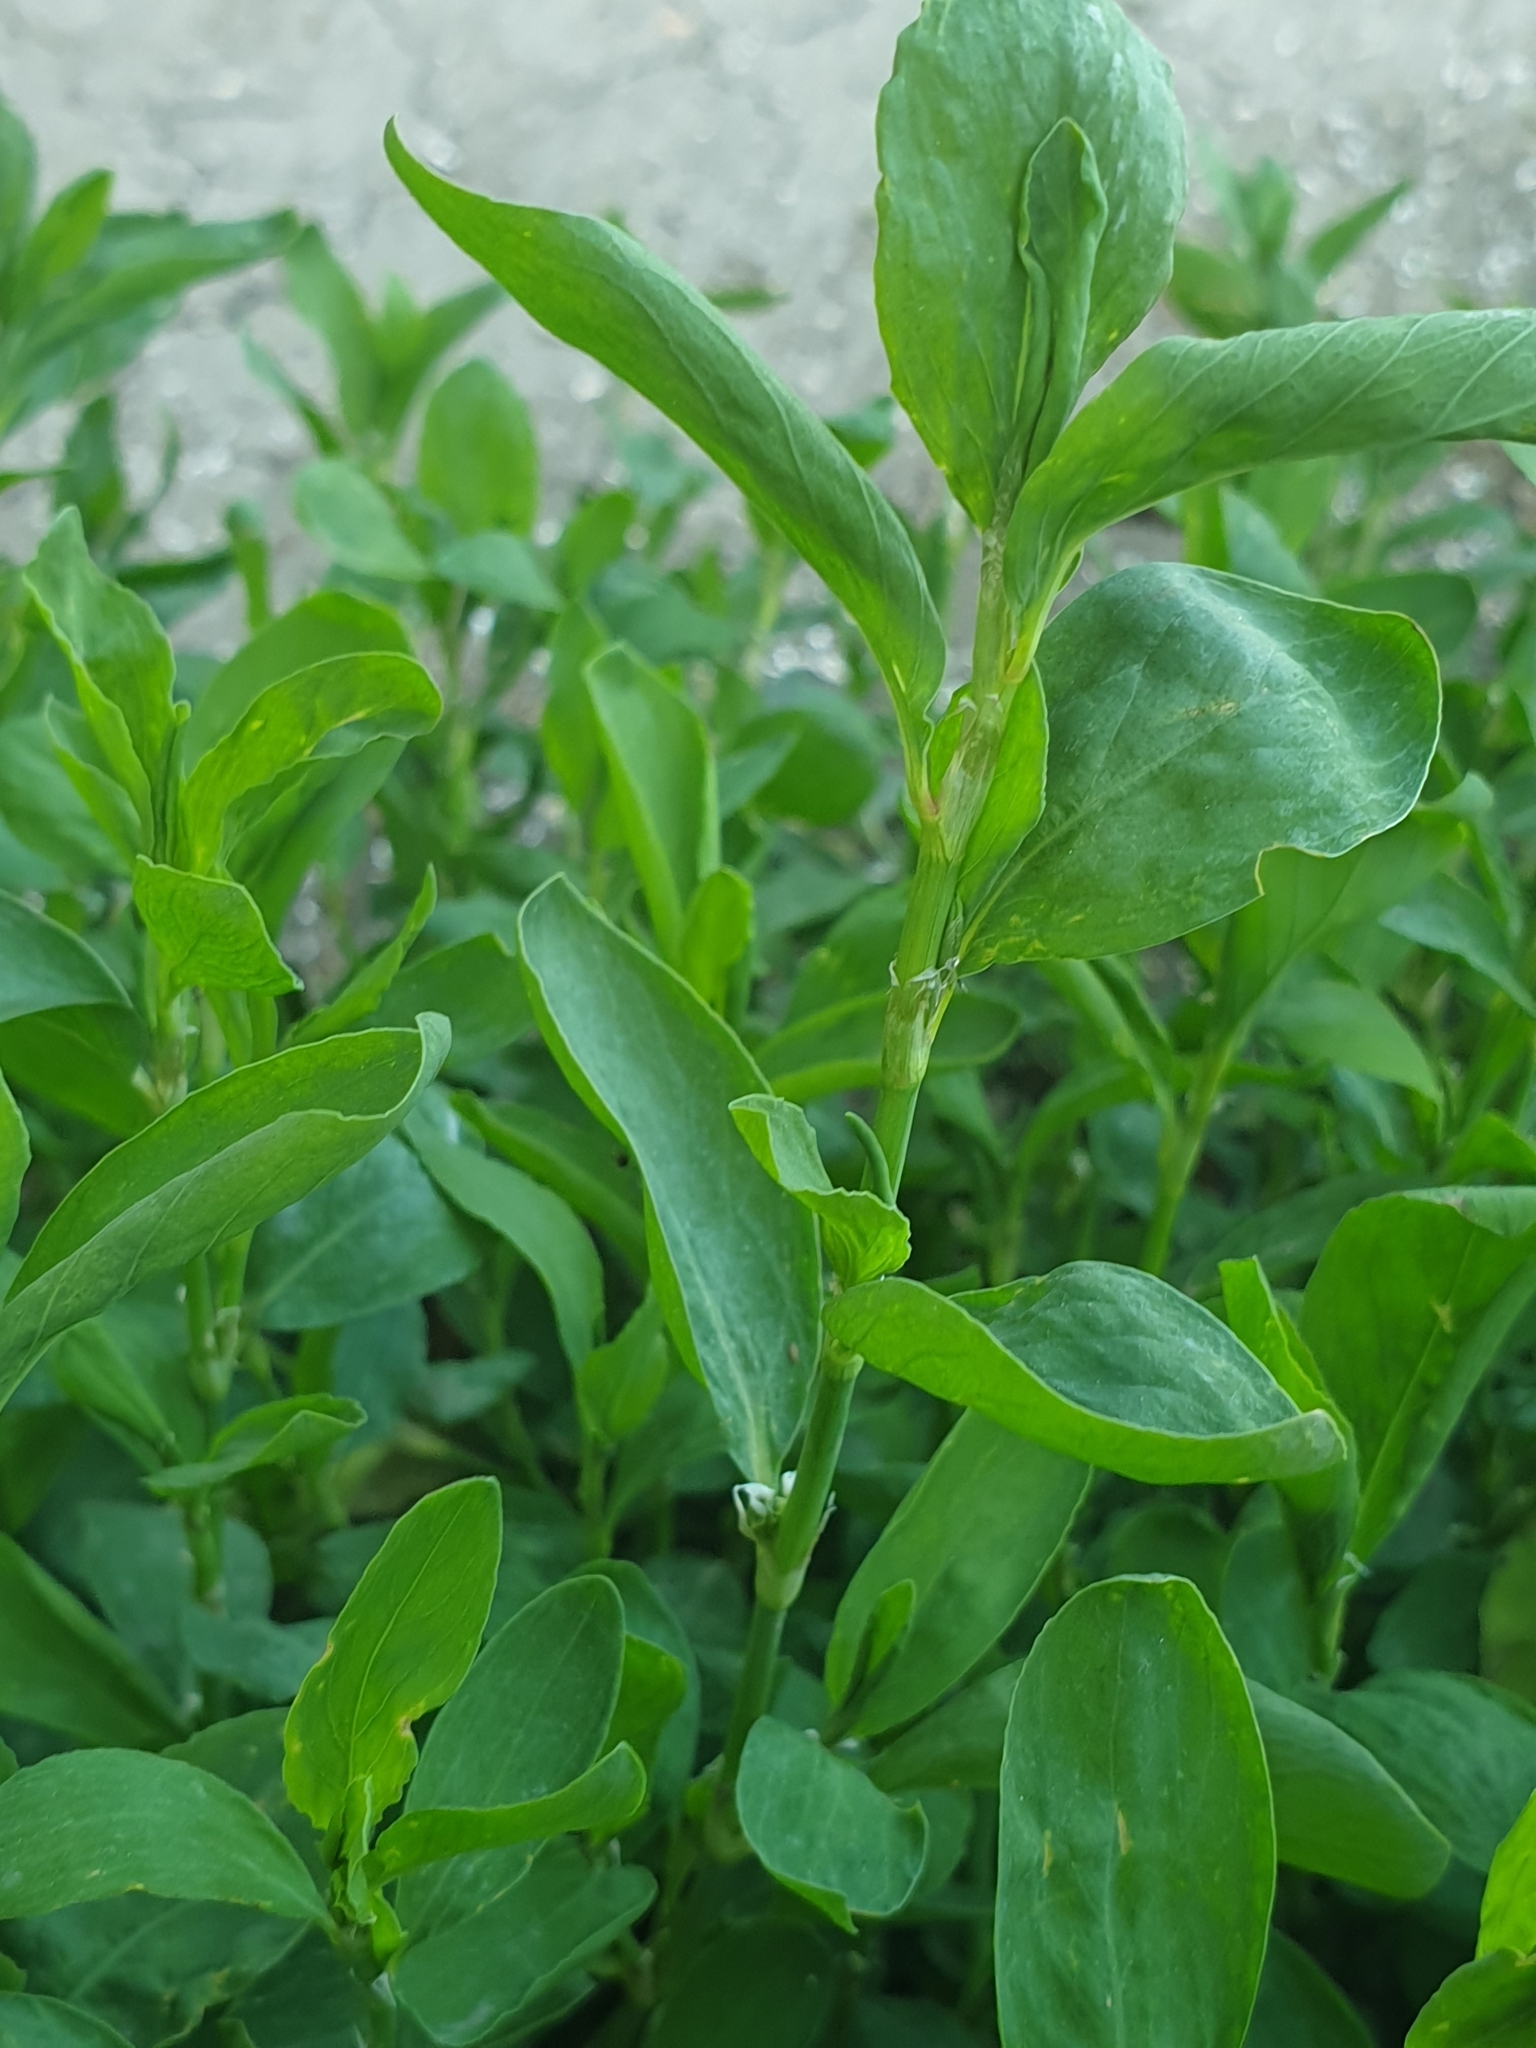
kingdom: Plantae
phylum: Tracheophyta
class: Magnoliopsida
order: Caryophyllales
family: Polygonaceae
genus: Polygonum
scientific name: Polygonum
